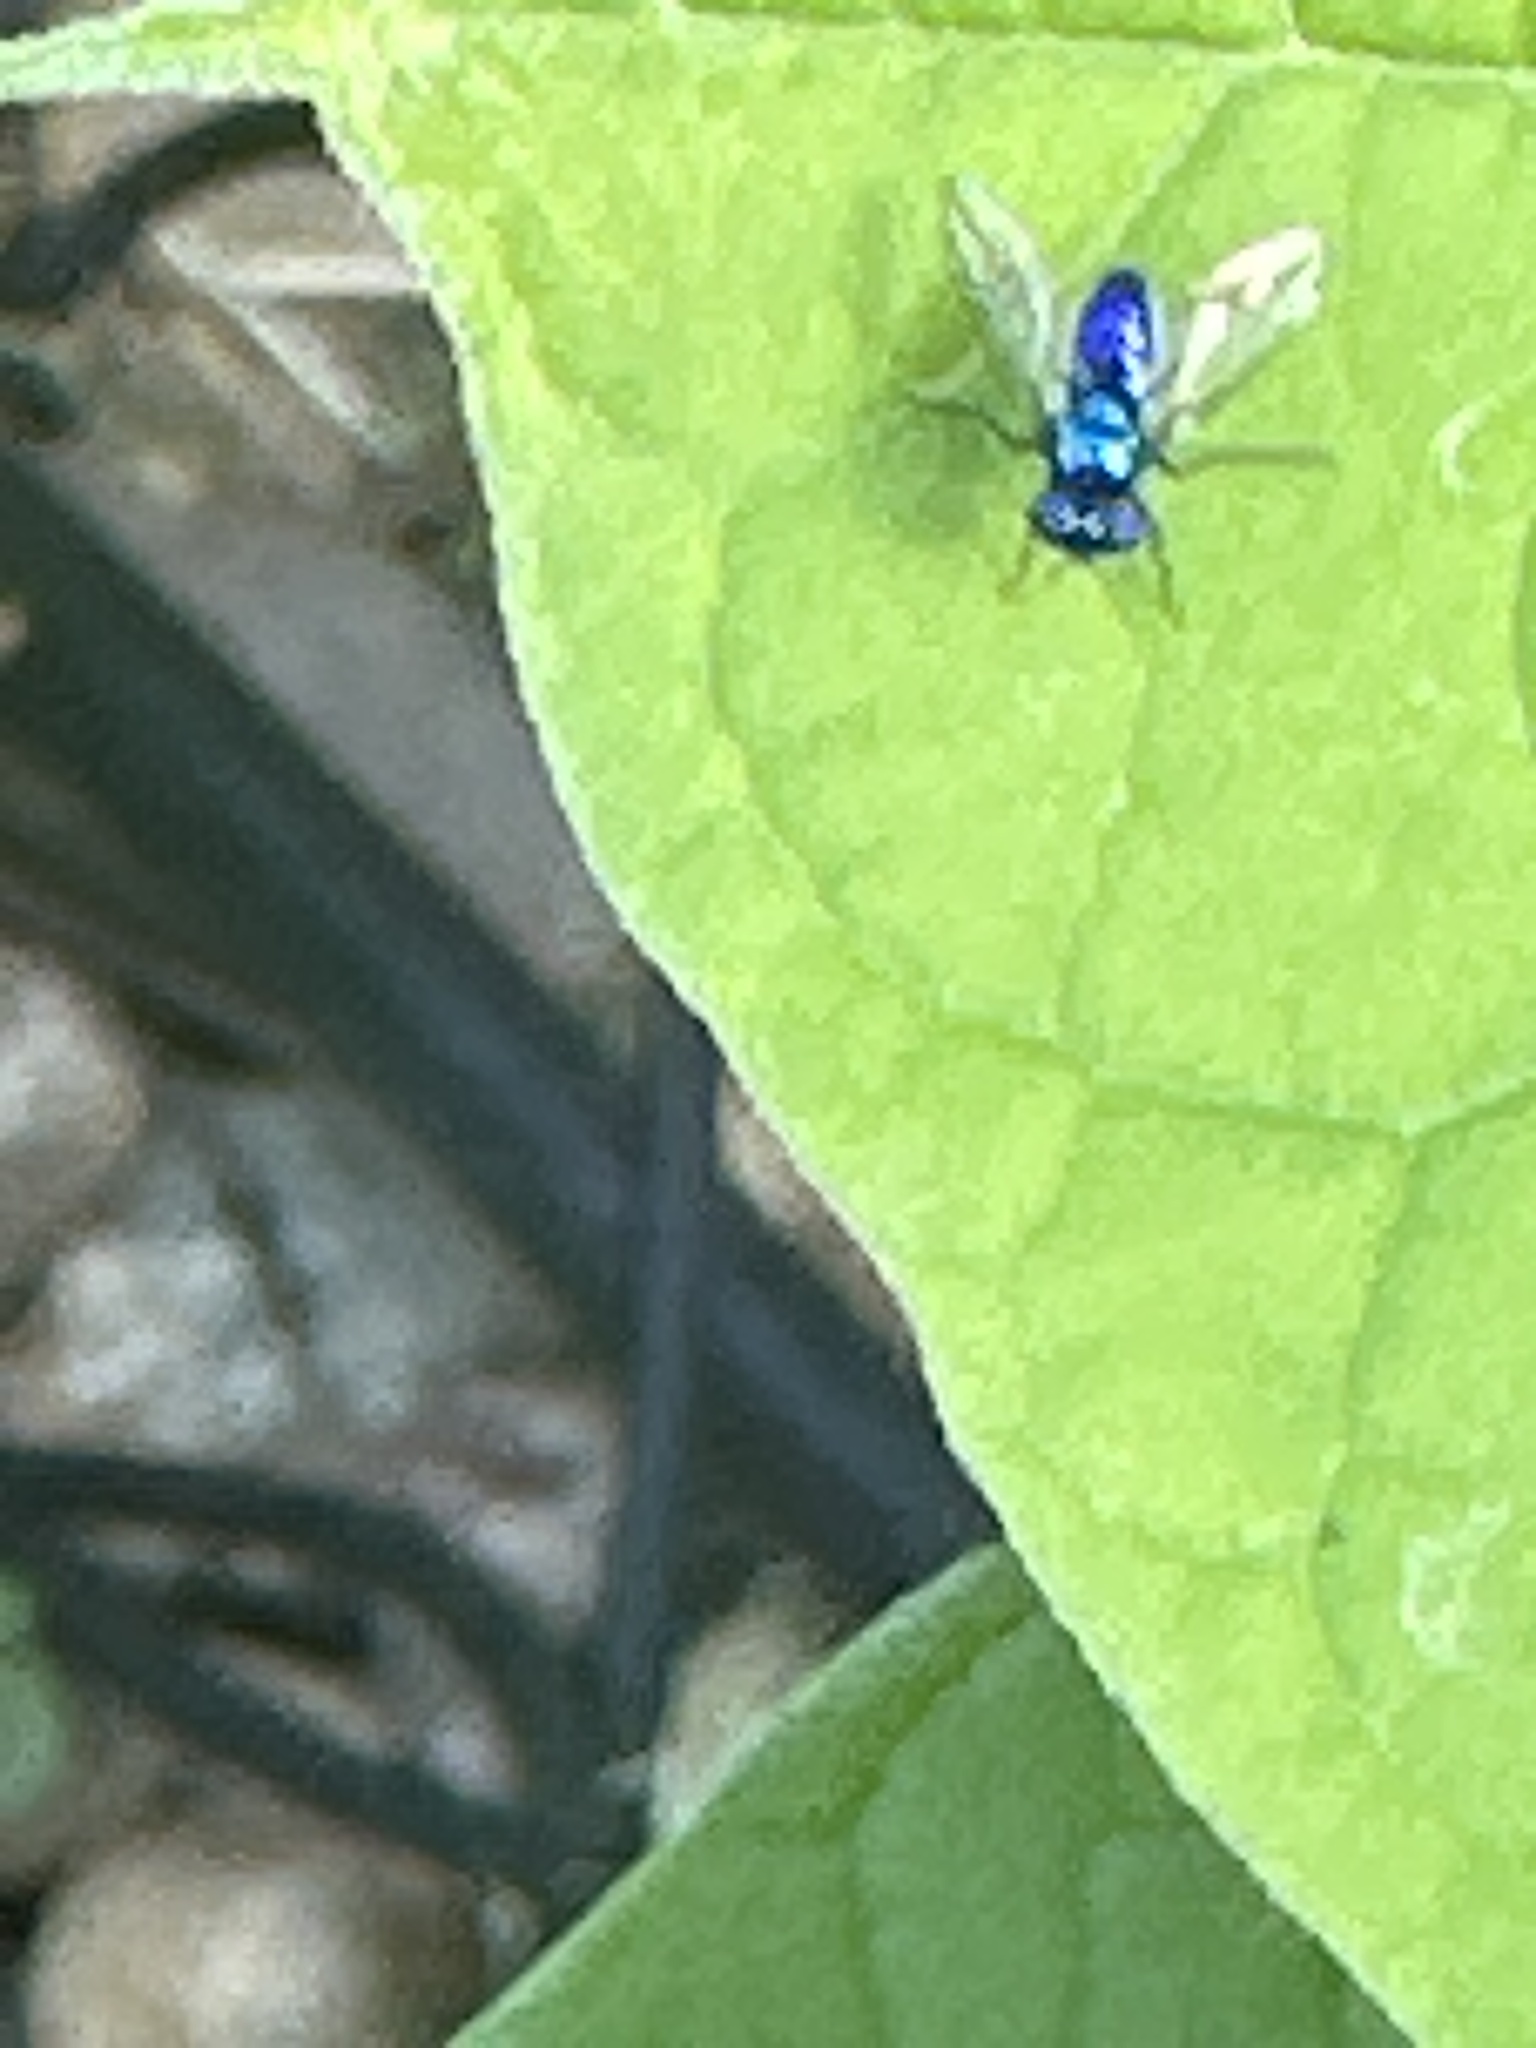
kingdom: Animalia
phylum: Arthropoda
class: Insecta
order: Diptera
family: Dolichopodidae
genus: Condylostylus
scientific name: Condylostylus mundus
